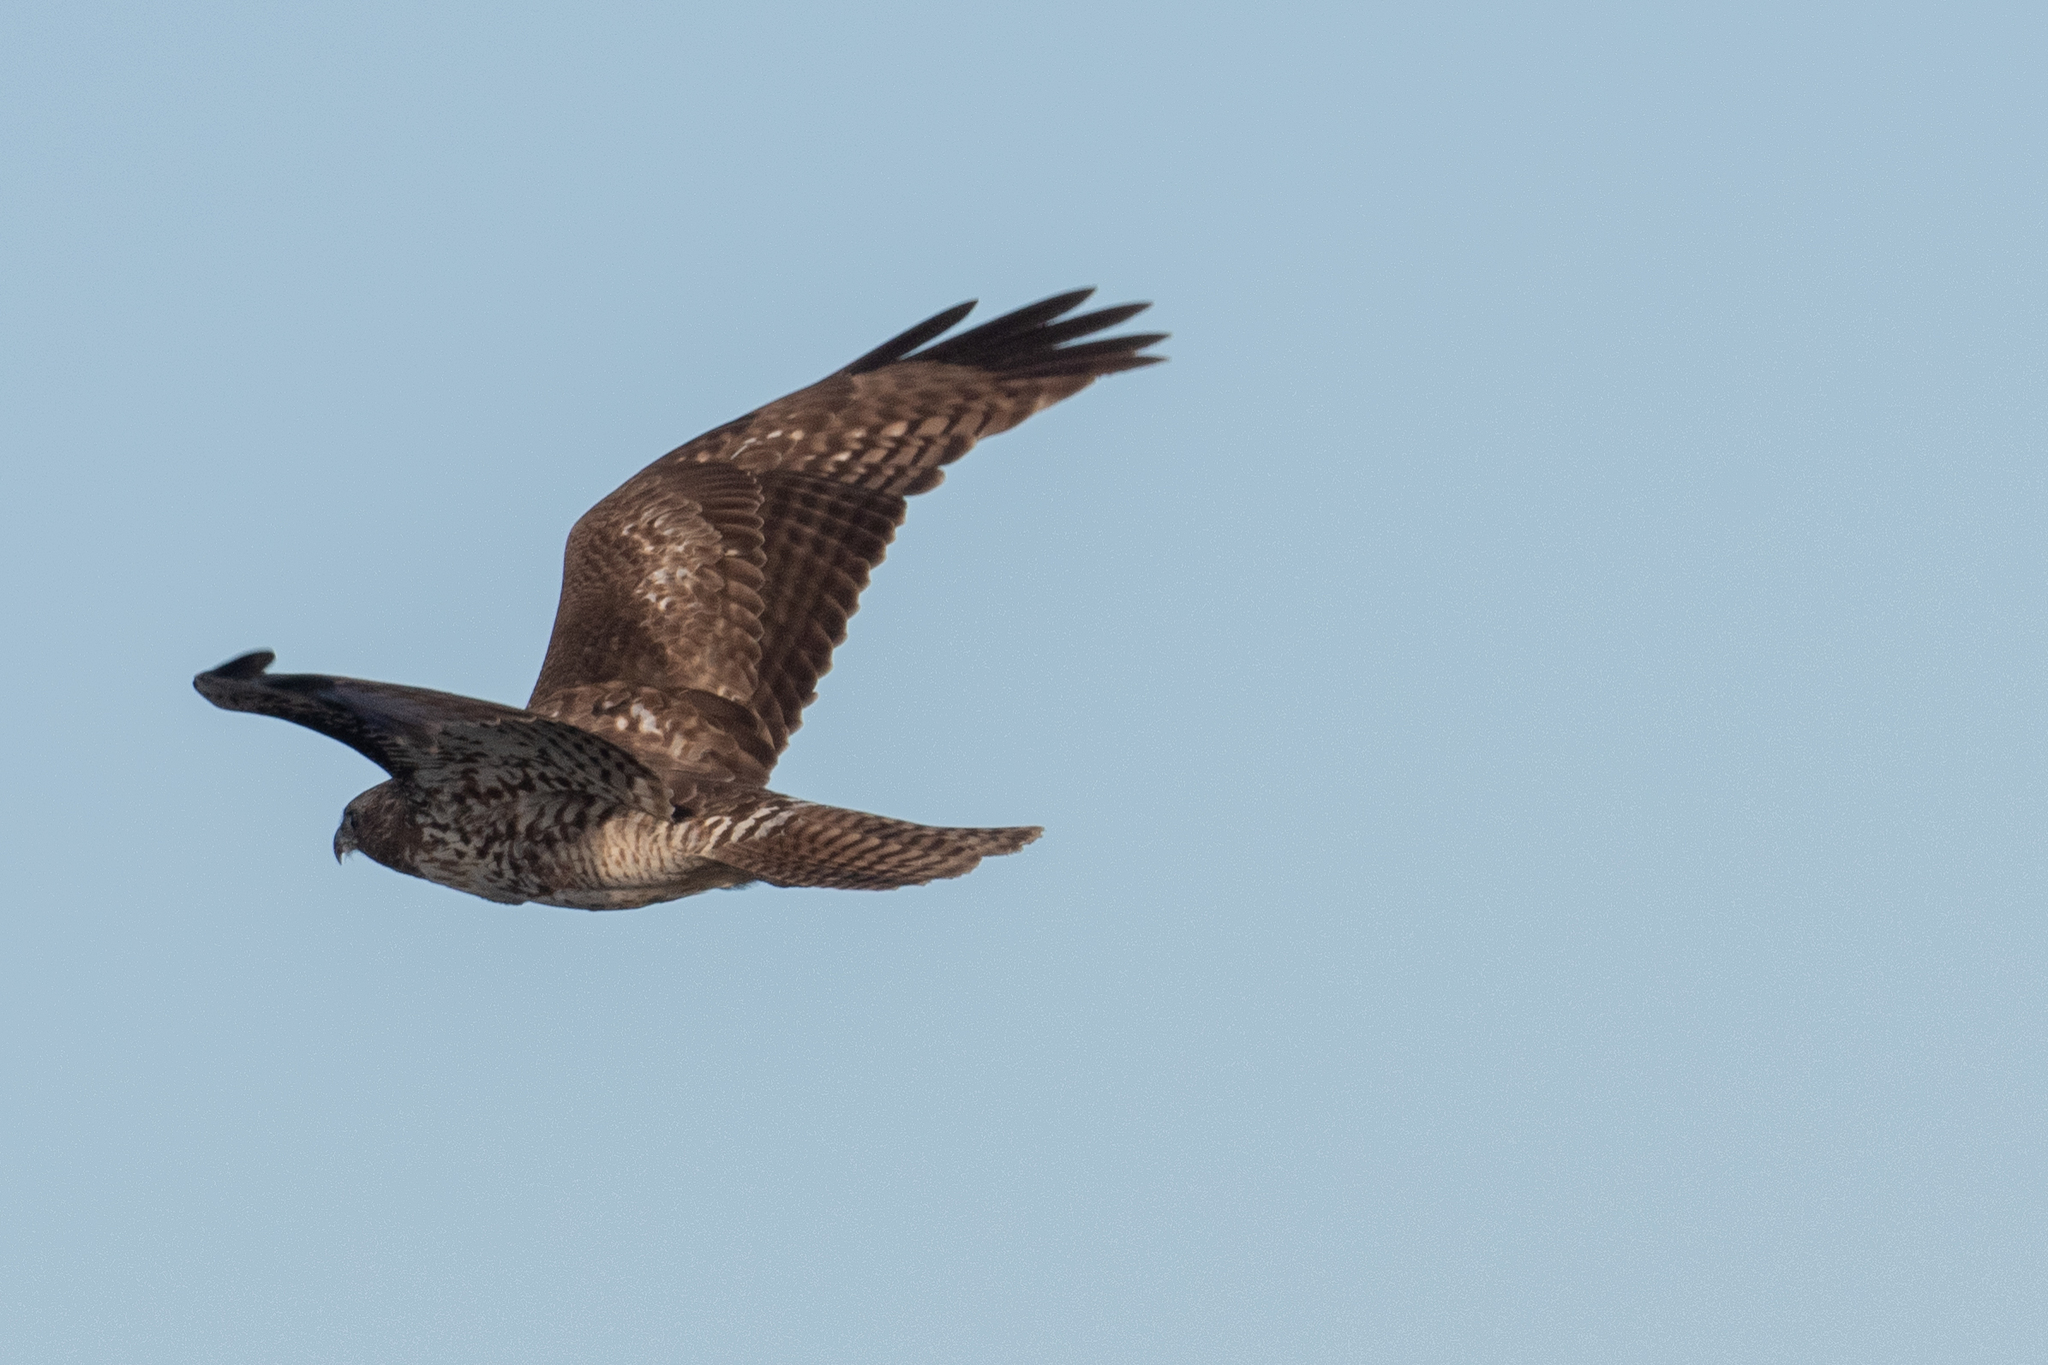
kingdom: Animalia
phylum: Chordata
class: Aves
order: Accipitriformes
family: Accipitridae
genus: Buteo
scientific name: Buteo jamaicensis
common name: Red-tailed hawk
